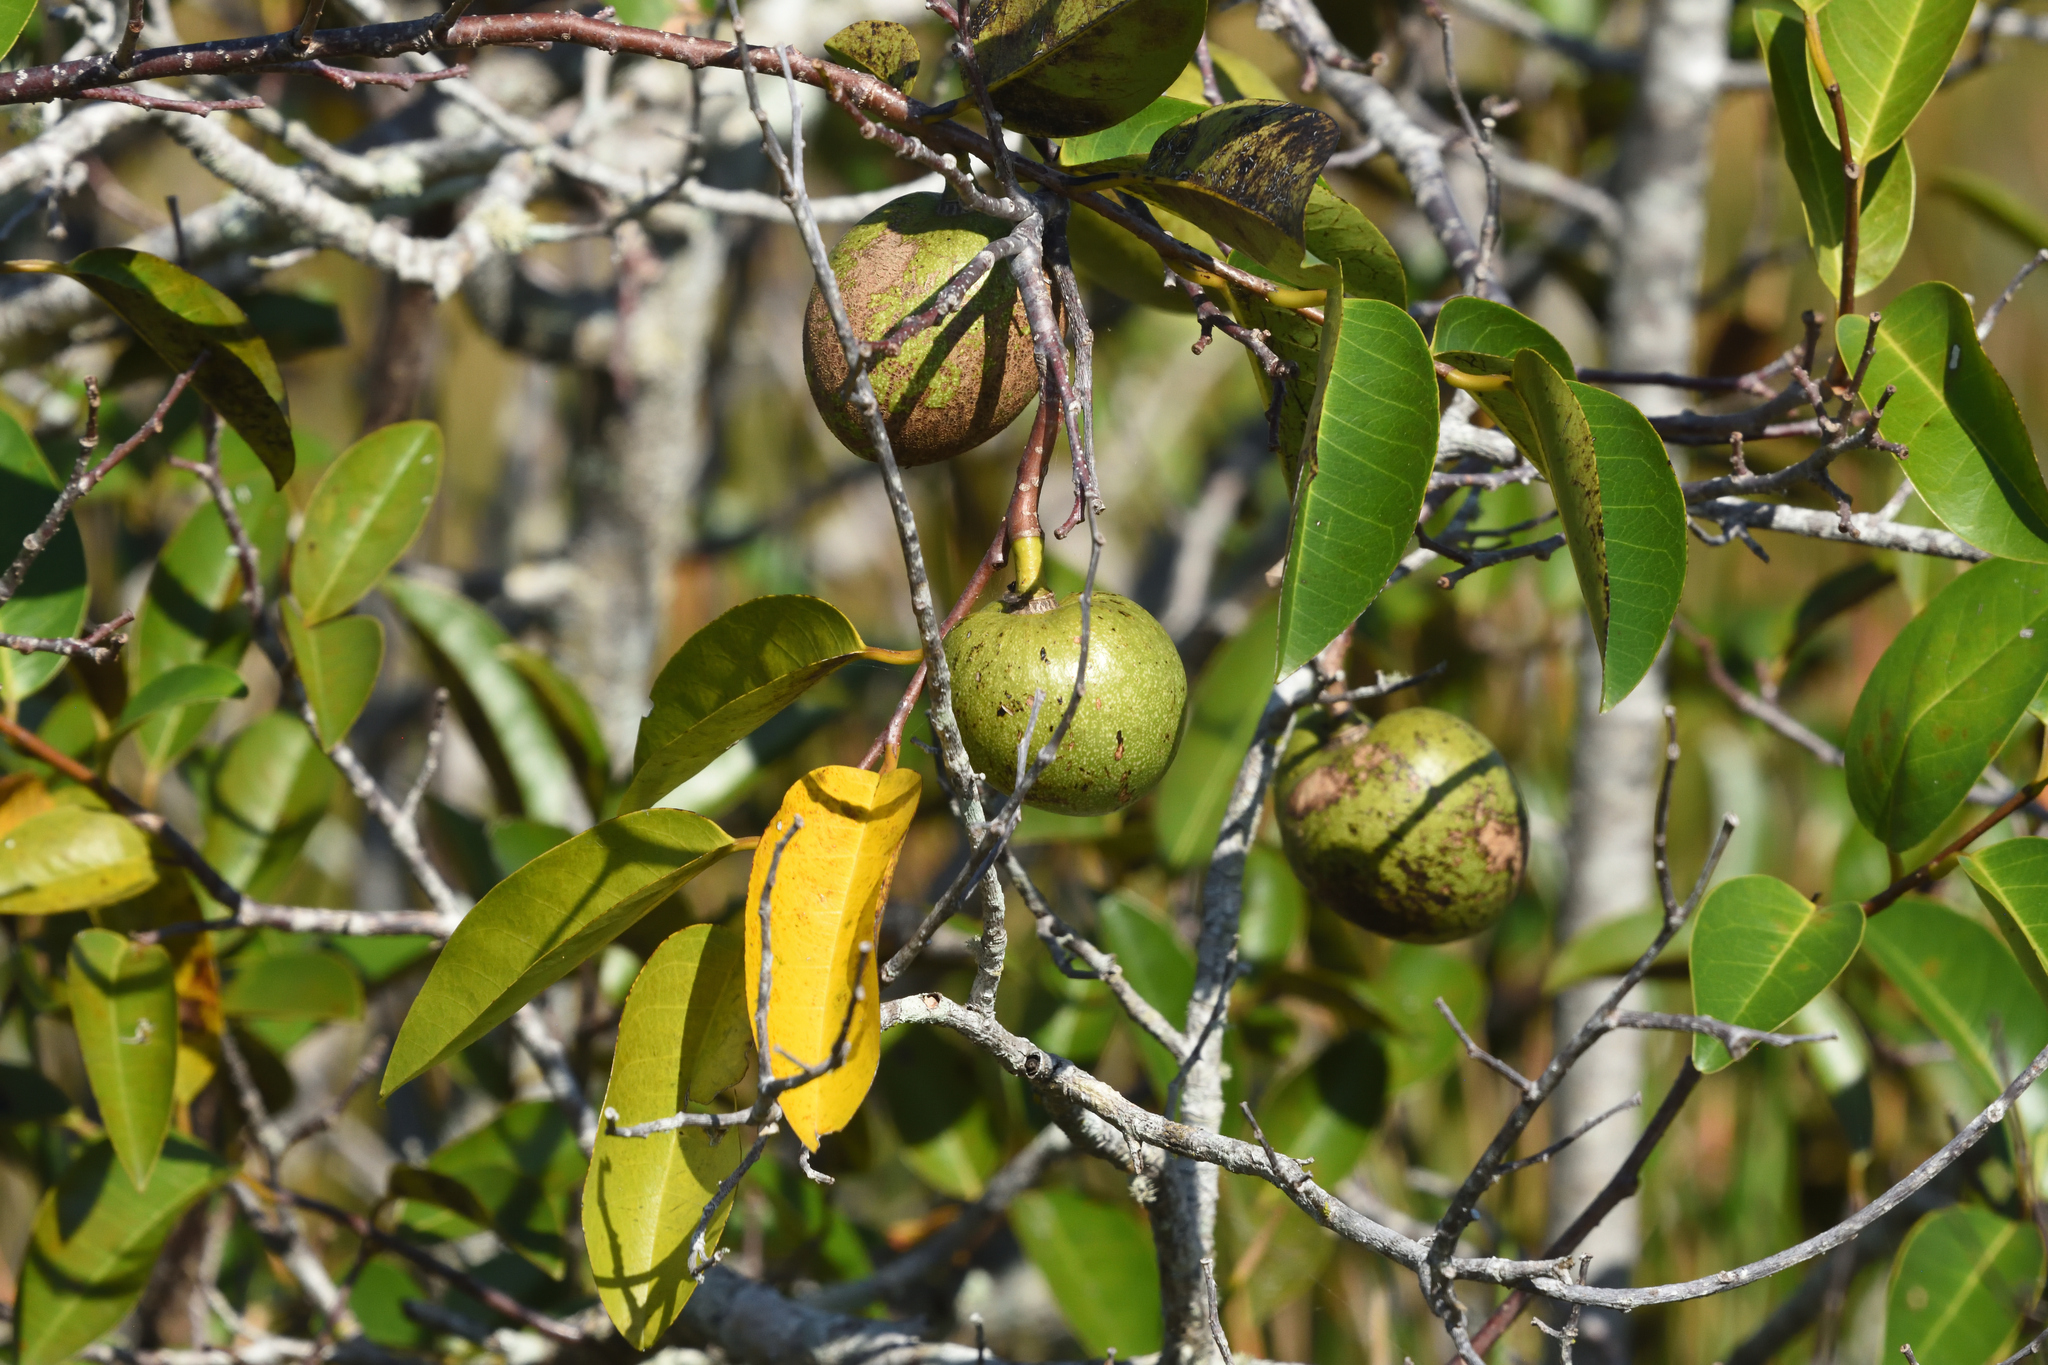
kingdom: Plantae
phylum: Tracheophyta
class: Magnoliopsida
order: Magnoliales
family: Annonaceae
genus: Annona
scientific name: Annona glabra
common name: Monkey apple
